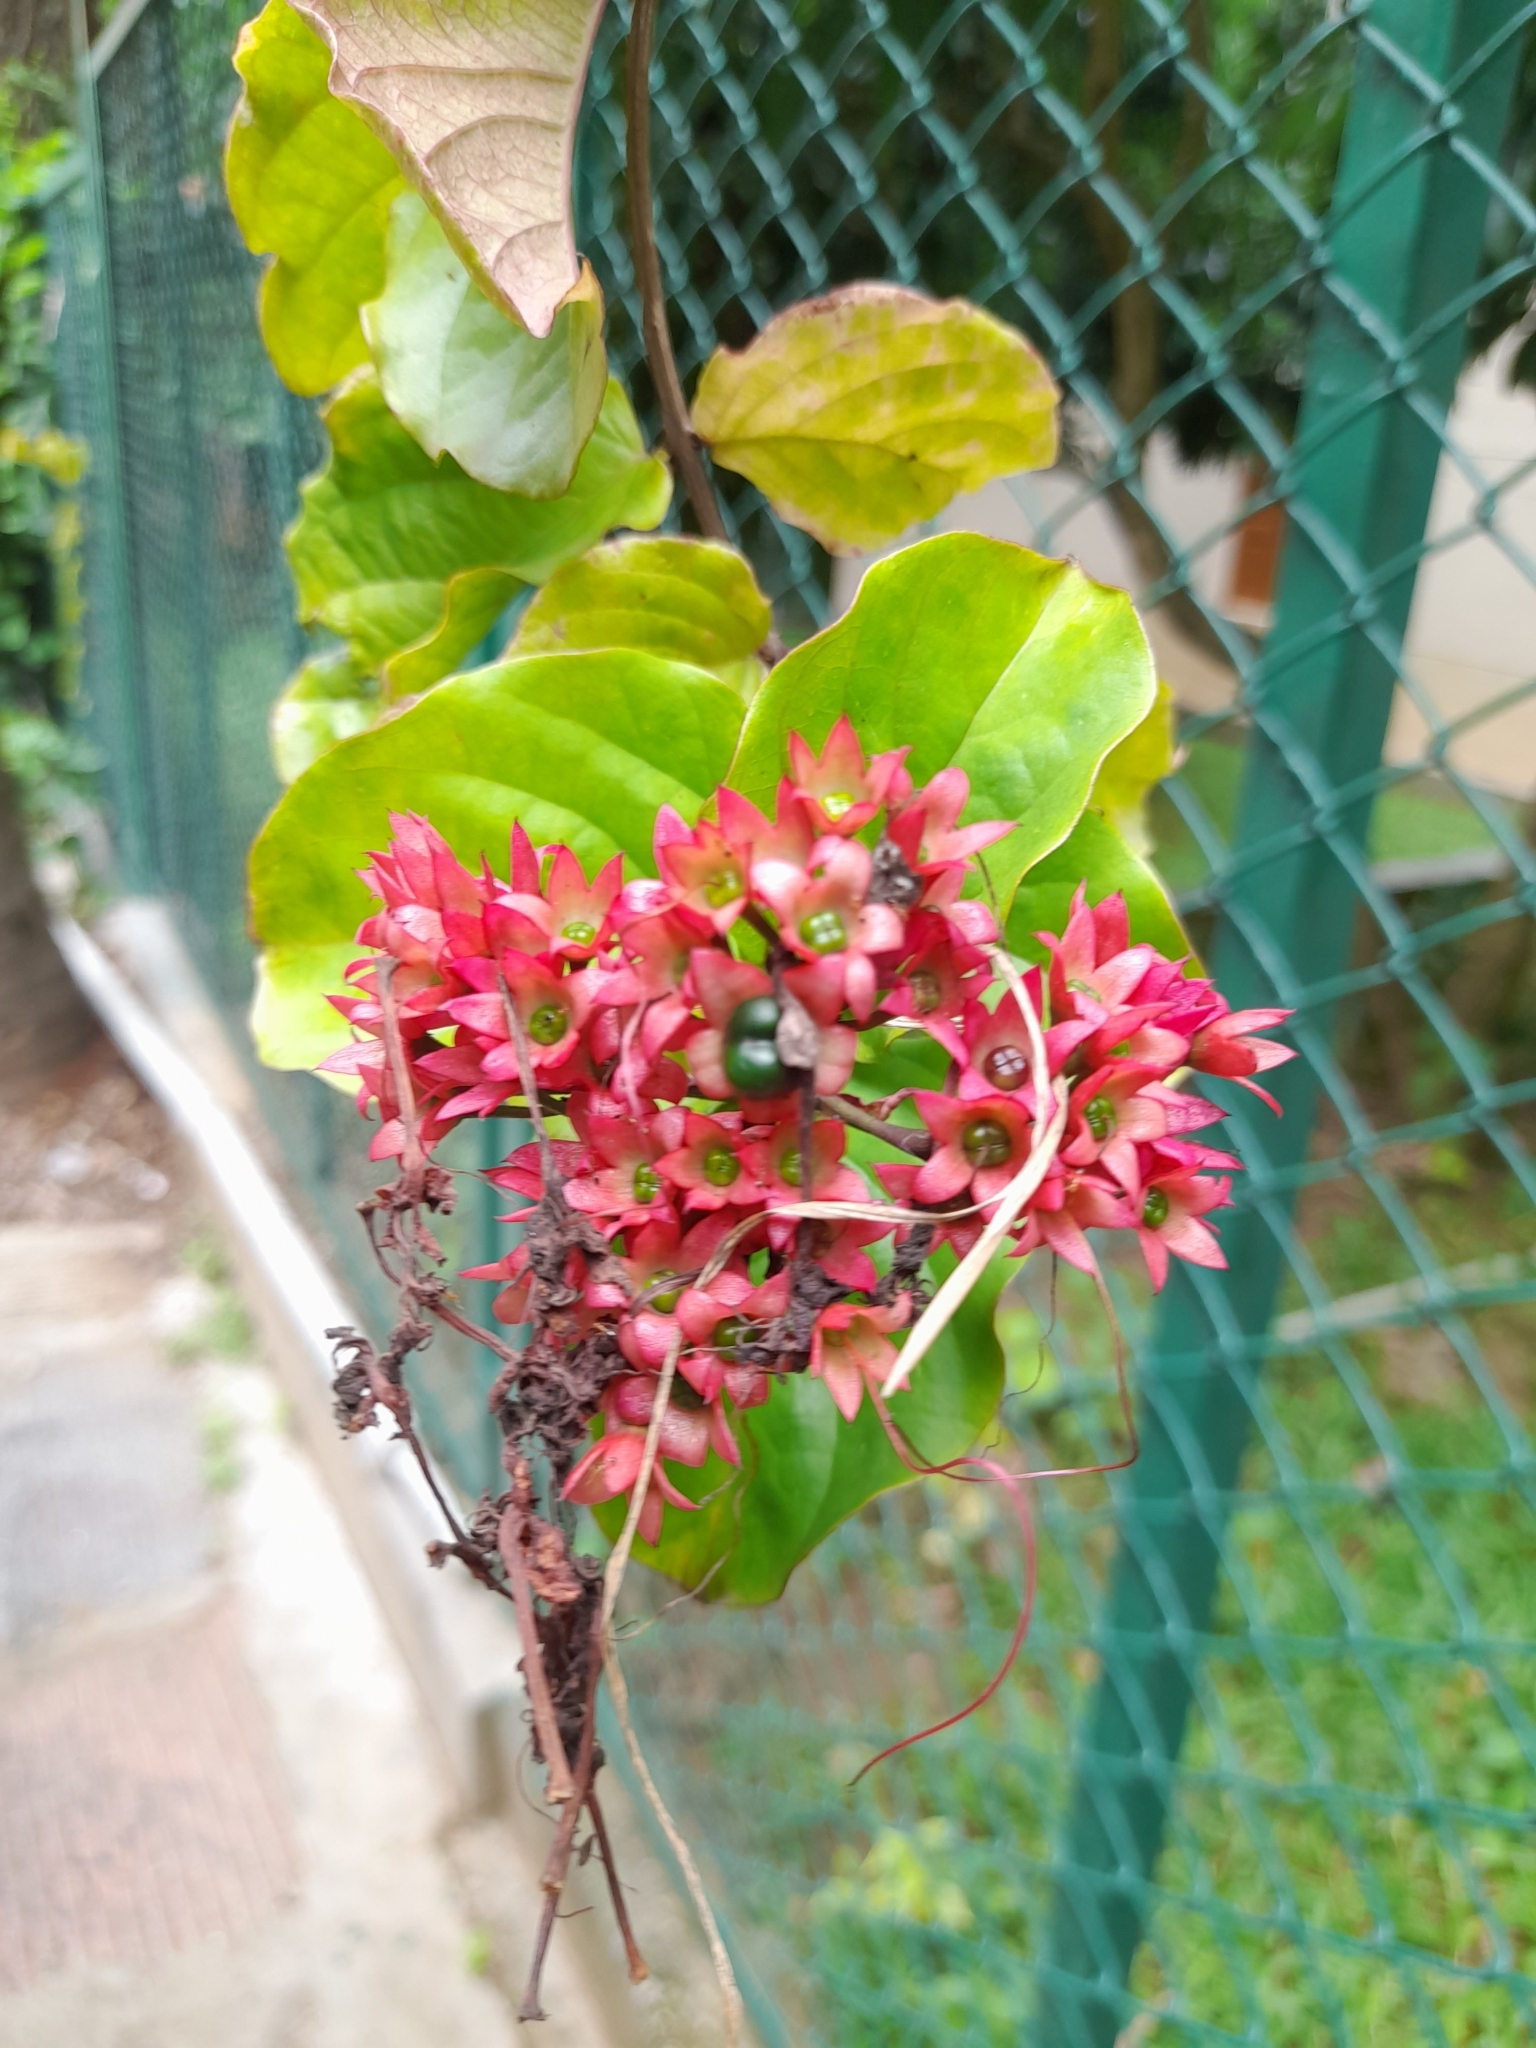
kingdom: Plantae
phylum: Tracheophyta
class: Magnoliopsida
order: Lamiales
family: Lamiaceae
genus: Clerodendrum
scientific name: Clerodendrum splendens
